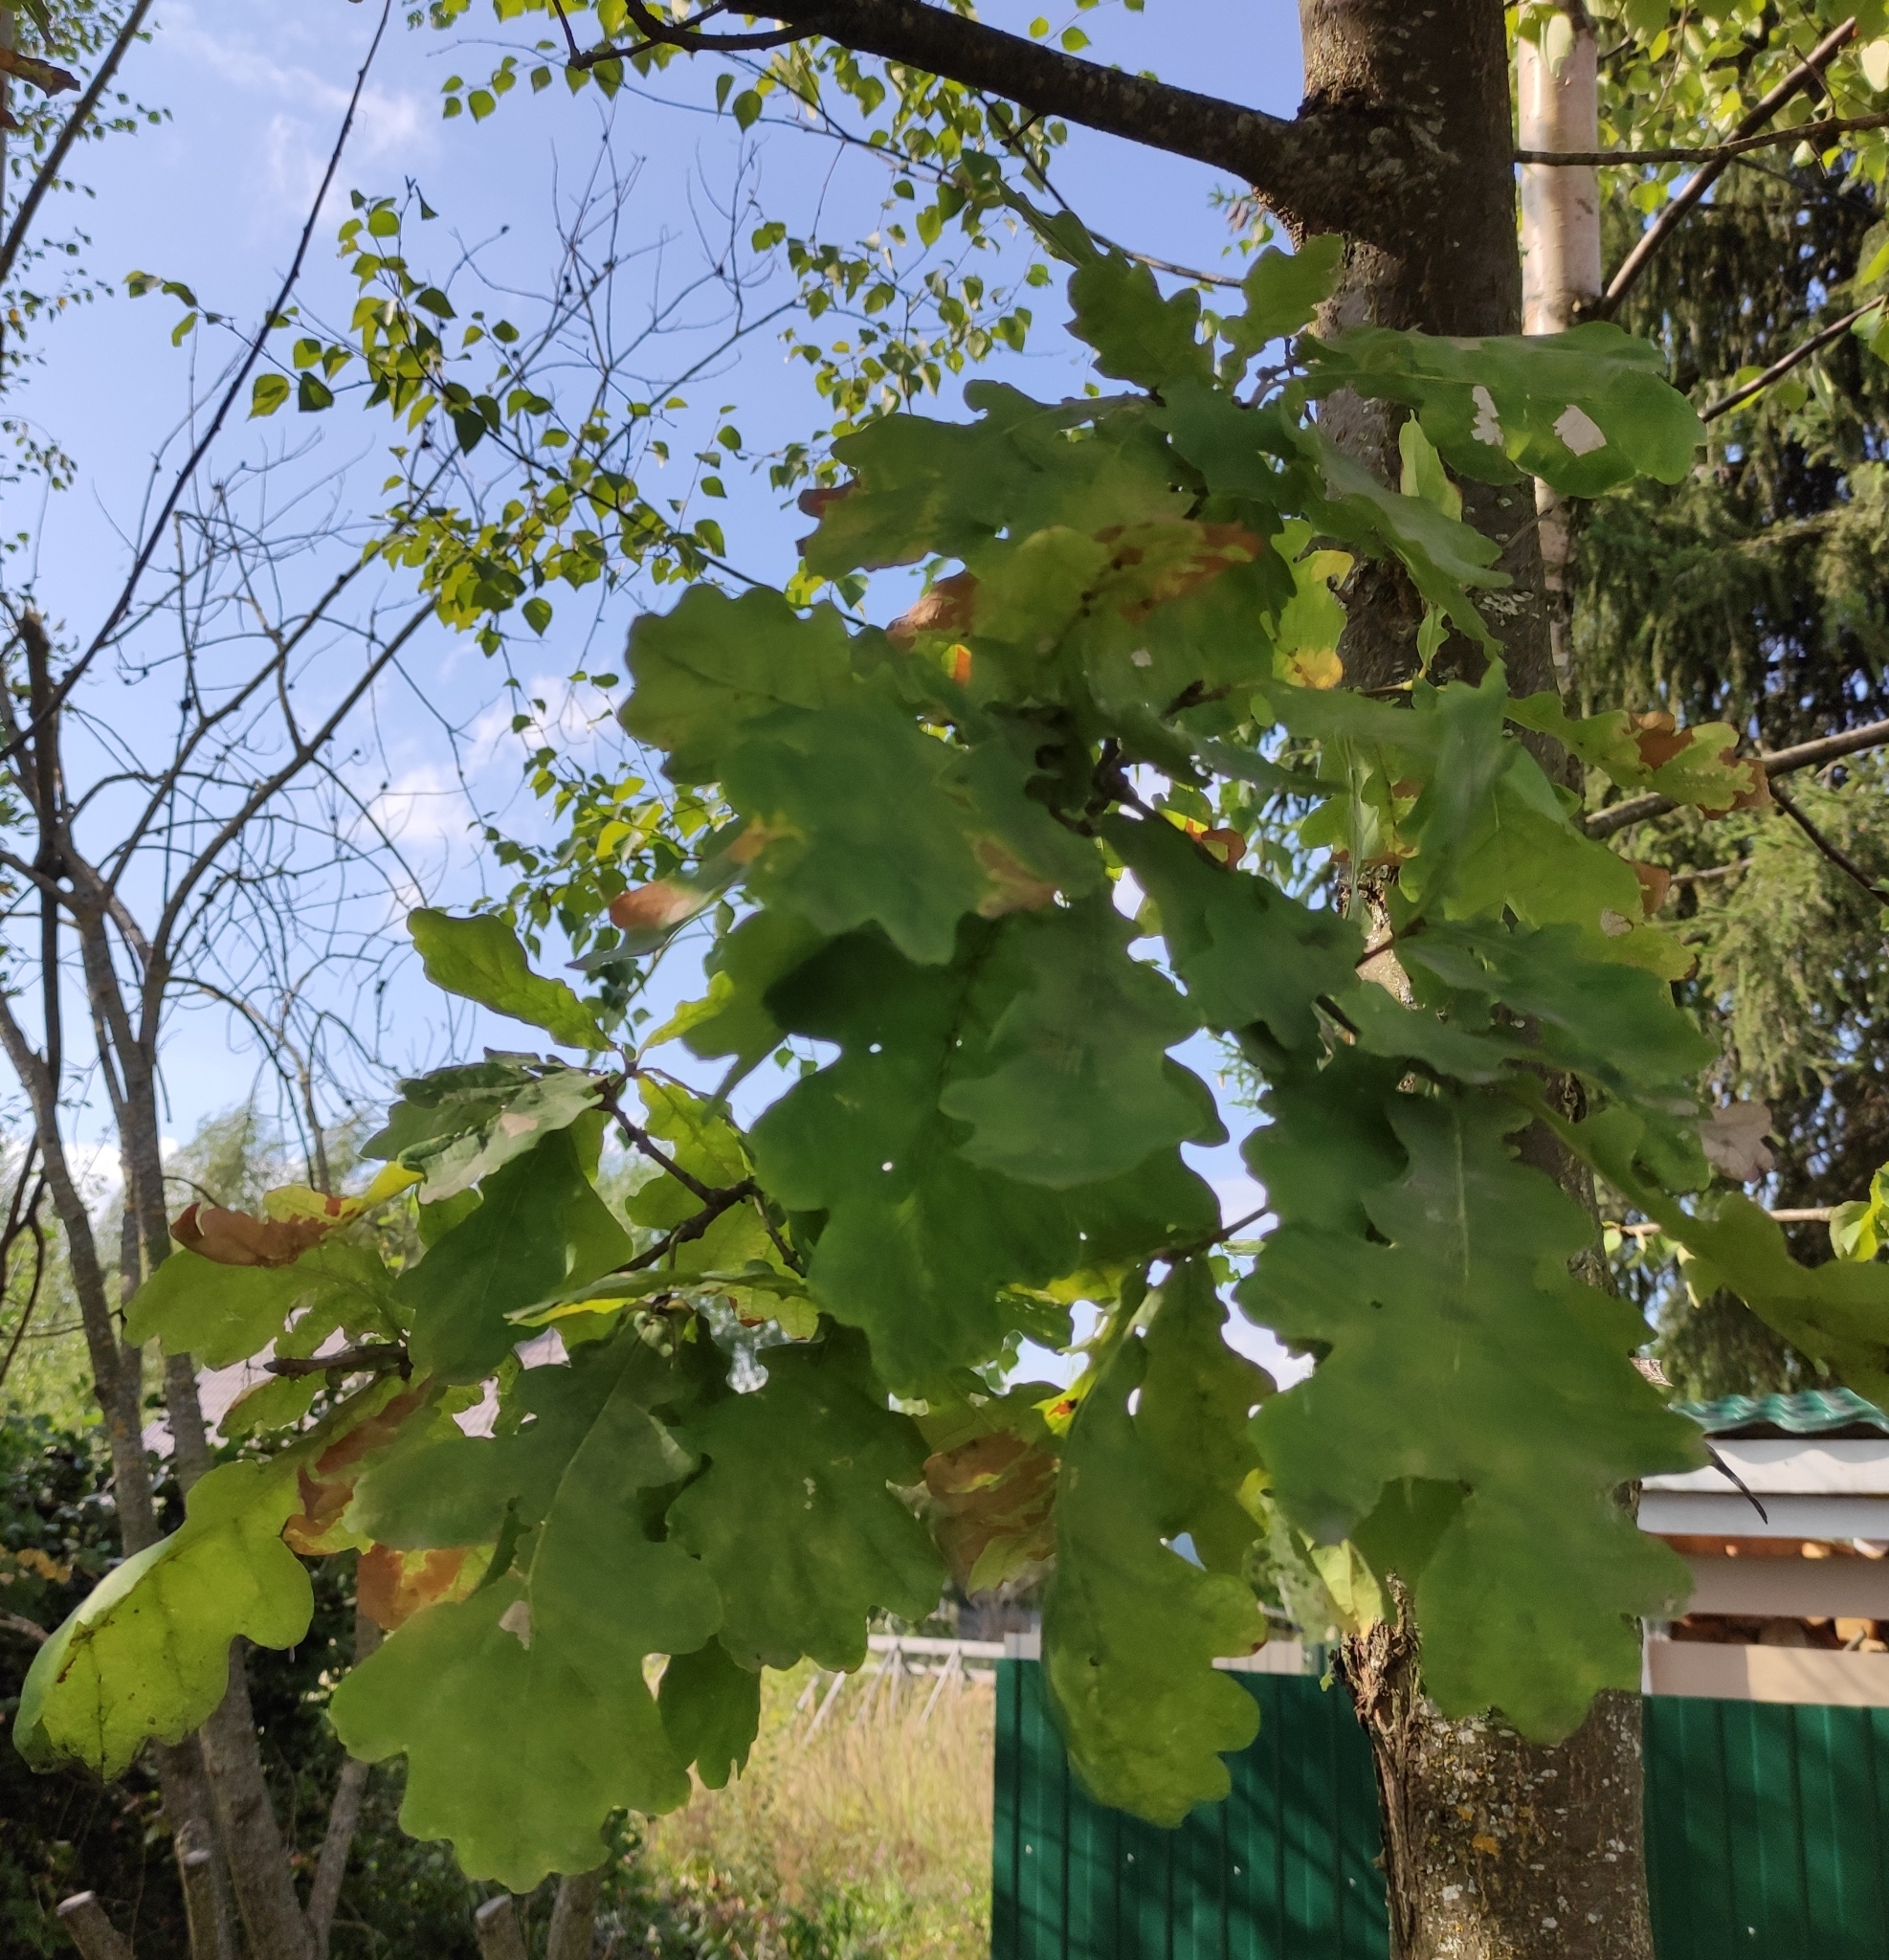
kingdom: Plantae
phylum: Tracheophyta
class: Magnoliopsida
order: Fagales
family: Fagaceae
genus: Quercus
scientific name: Quercus robur
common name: Pedunculate oak
